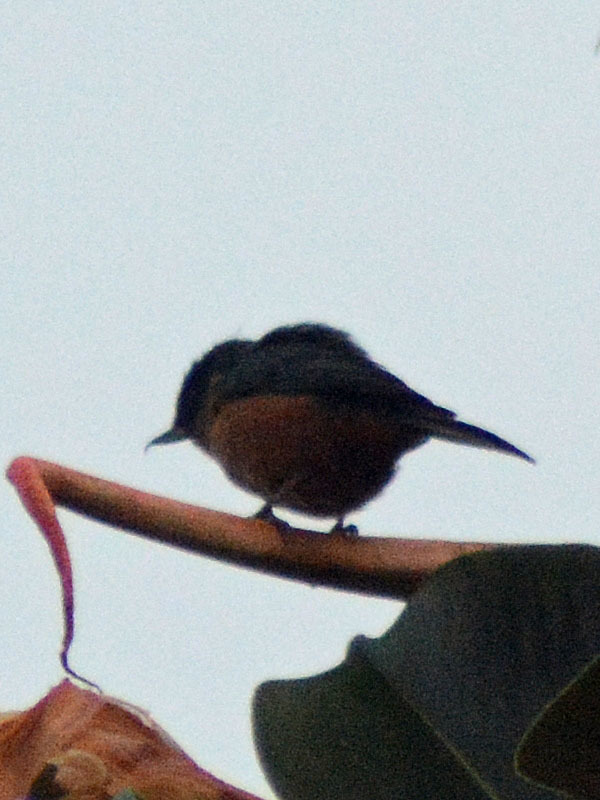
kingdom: Animalia
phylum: Chordata
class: Aves
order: Passeriformes
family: Thraupidae
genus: Diglossa
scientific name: Diglossa baritula
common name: Cinnamon-bellied flowerpiercer
